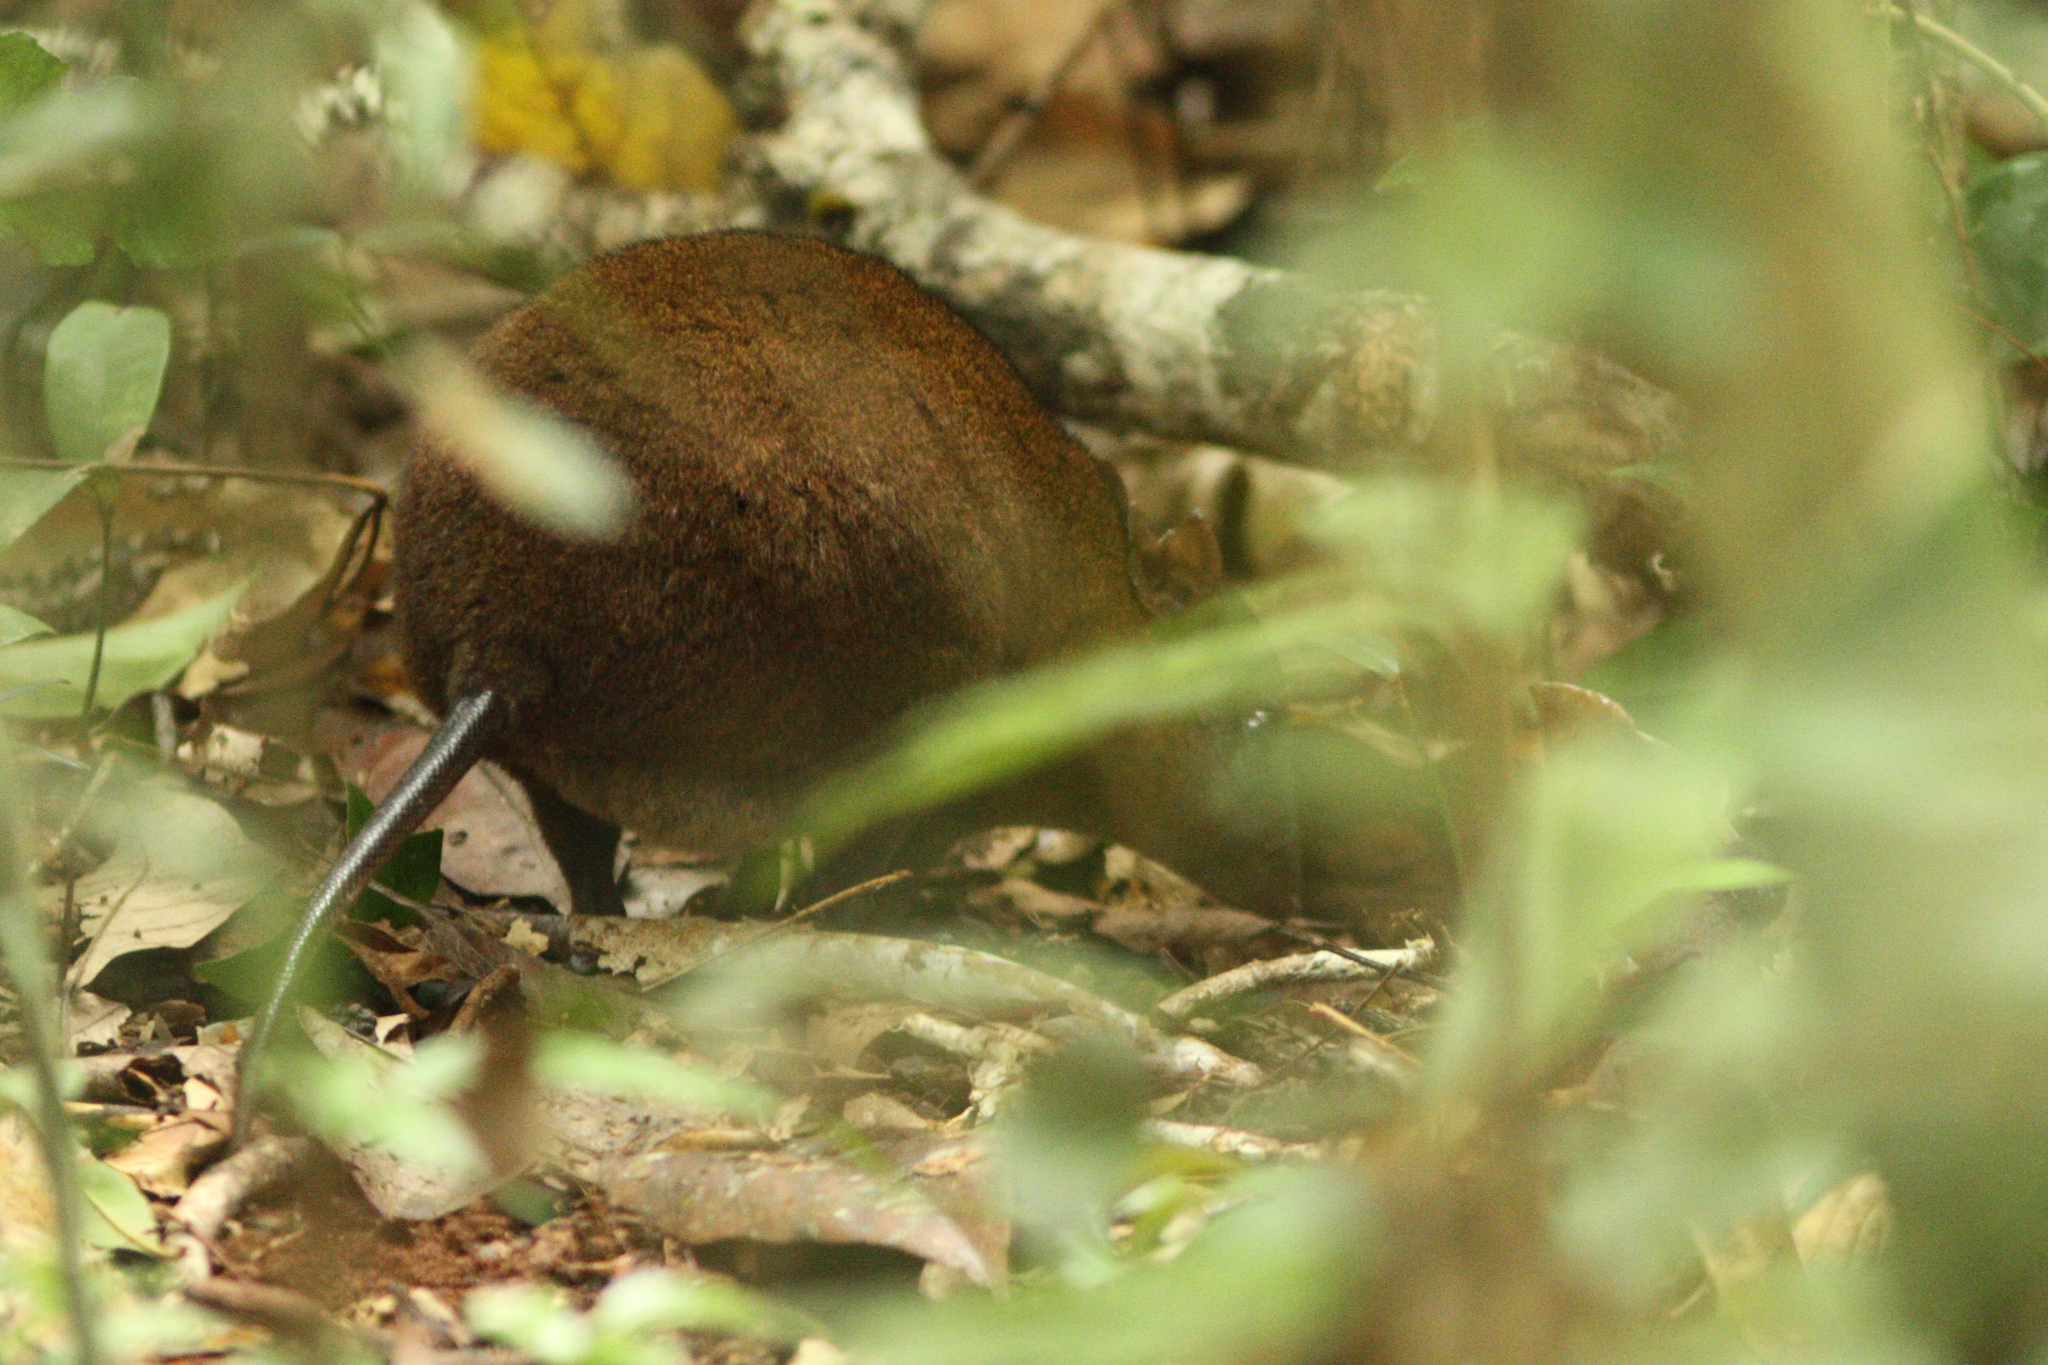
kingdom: Animalia
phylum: Chordata
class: Mammalia
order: Diprotodontia
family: Hypsiprymnodontidae
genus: Hypsiprymnodon
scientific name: Hypsiprymnodon moschatus
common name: Musky rat-kangaroo
